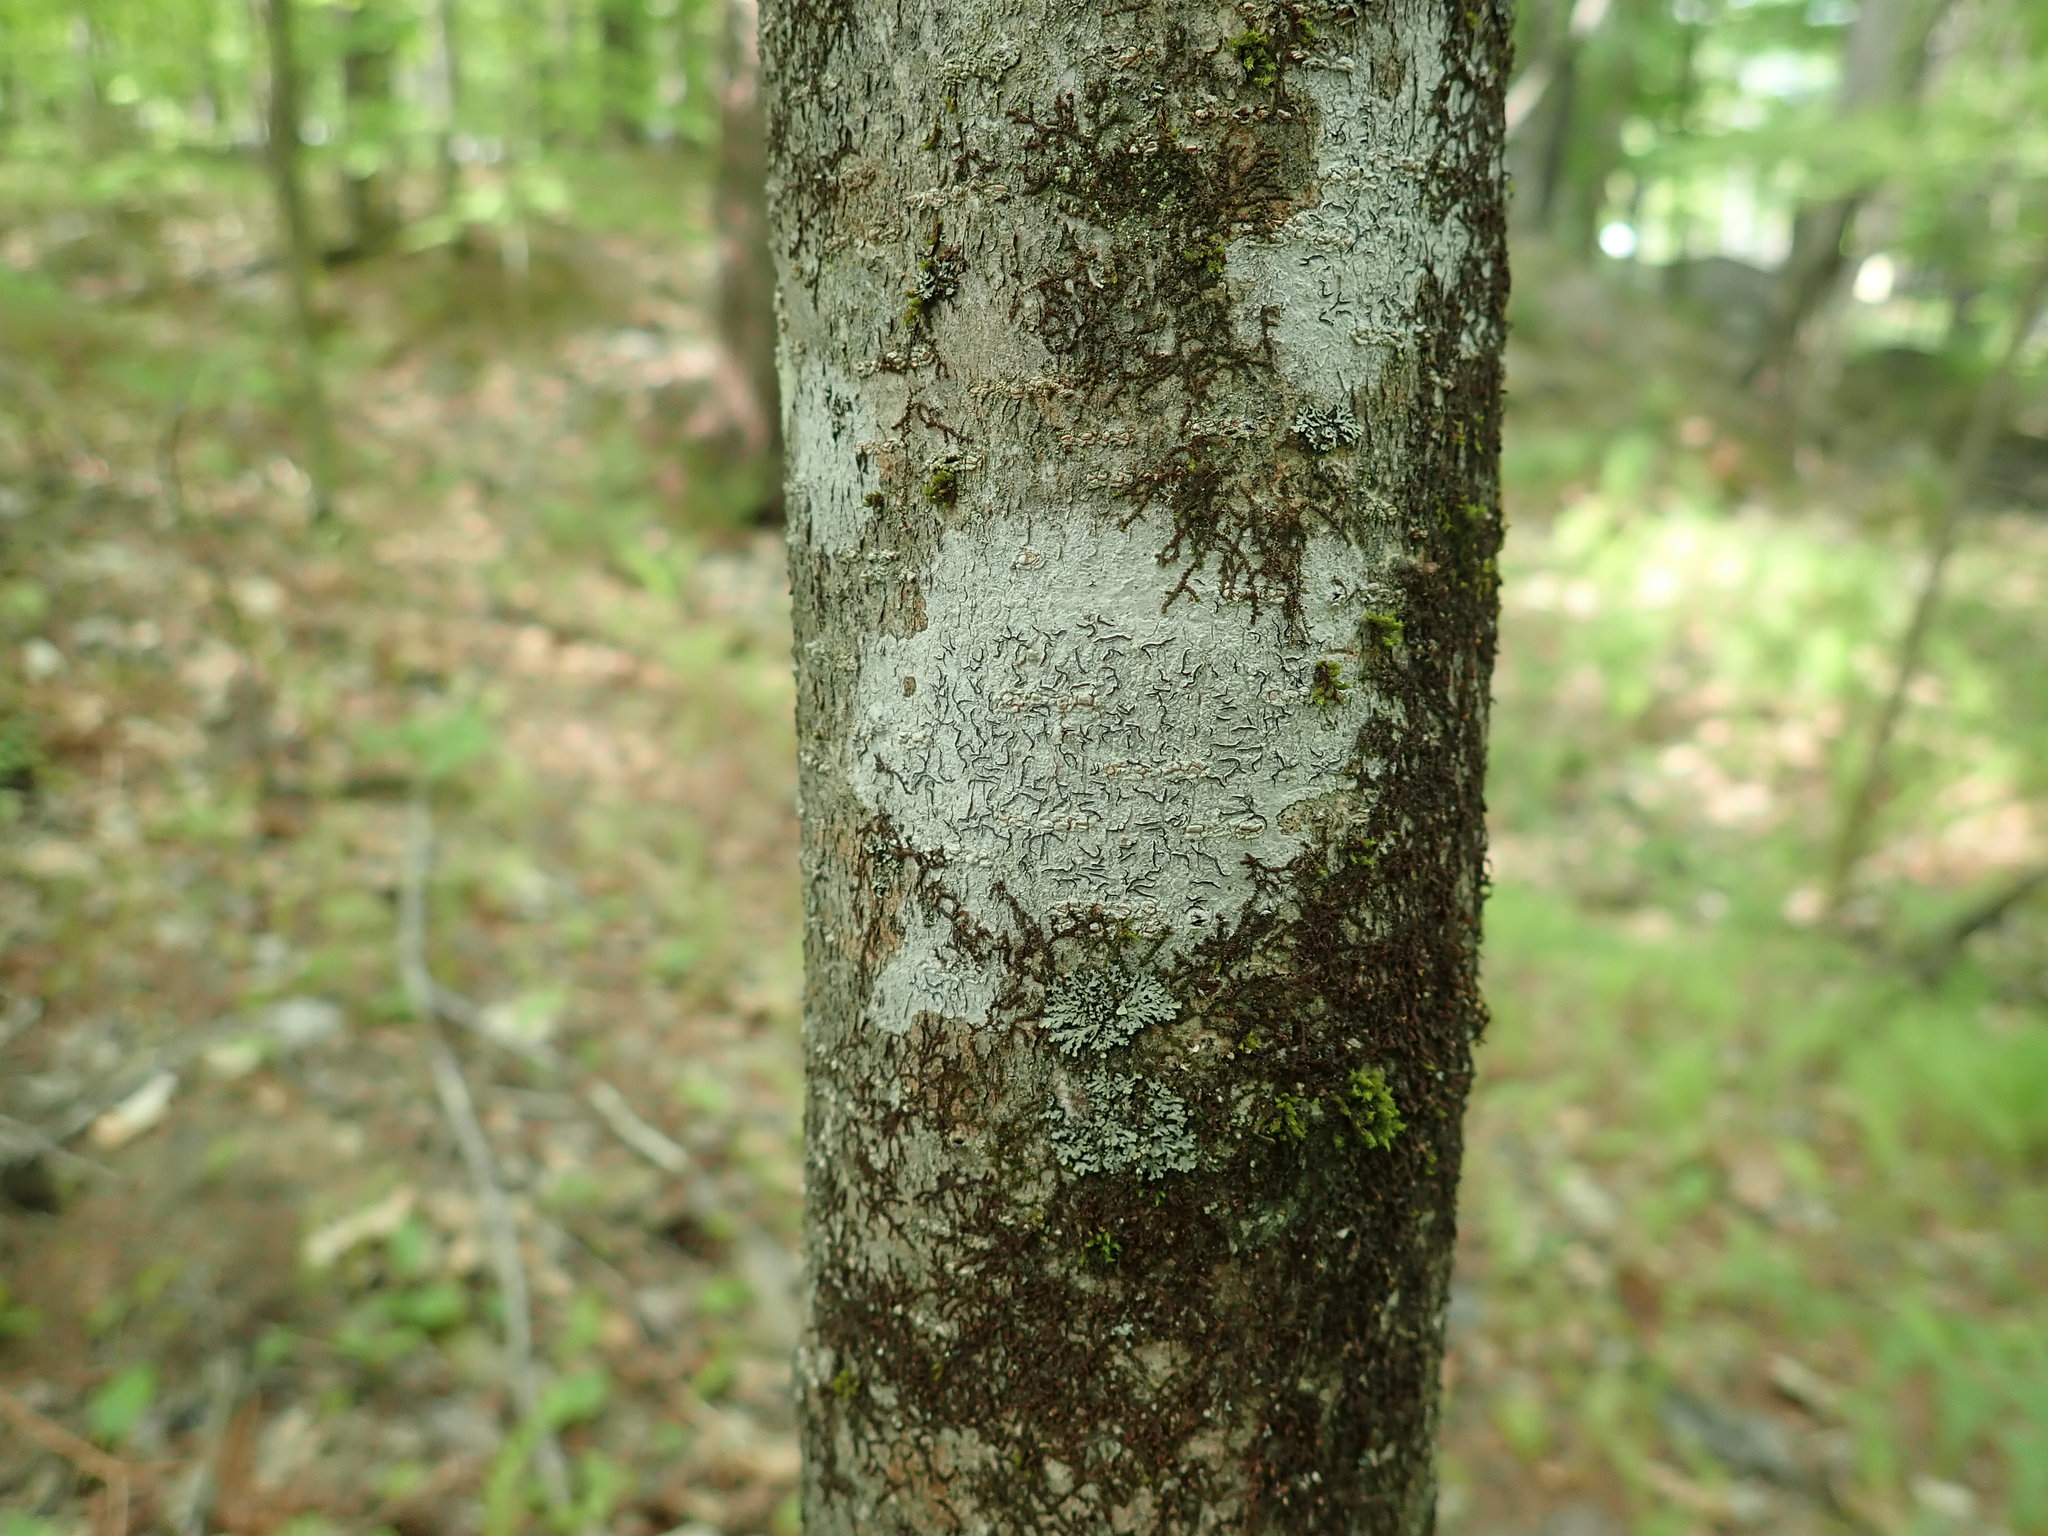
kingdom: Fungi
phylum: Ascomycota
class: Lecanoromycetes
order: Ostropales
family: Graphidaceae
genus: Graphis
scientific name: Graphis scripta
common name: Script lichen
